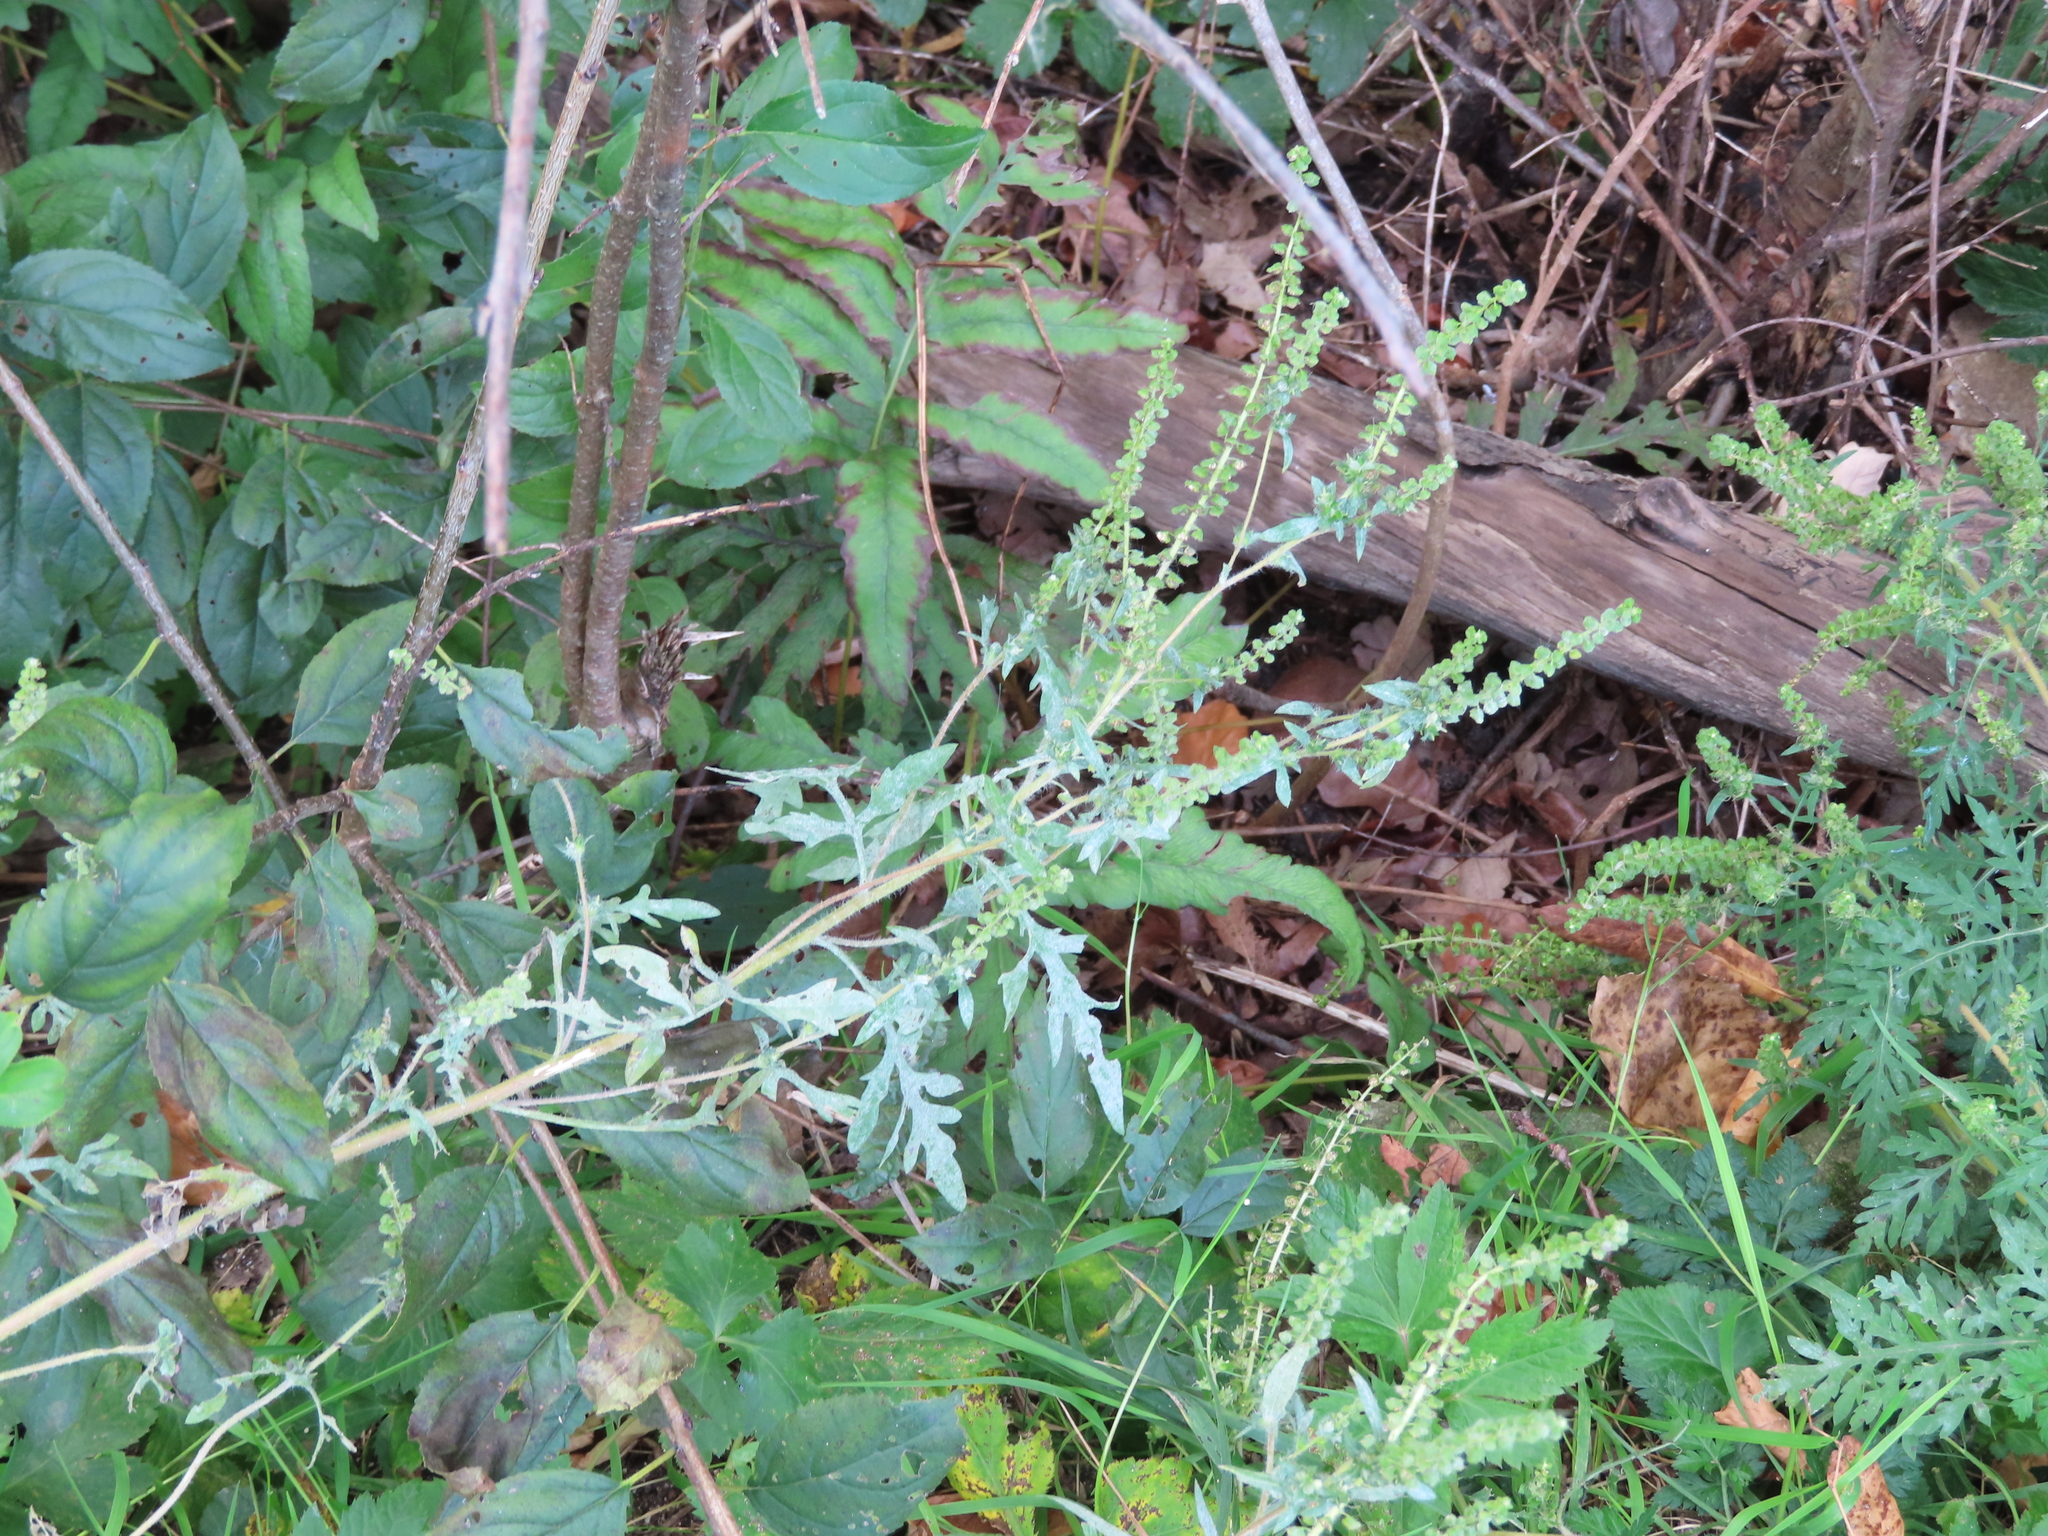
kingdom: Plantae
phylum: Tracheophyta
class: Magnoliopsida
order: Asterales
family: Asteraceae
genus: Ambrosia
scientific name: Ambrosia artemisiifolia
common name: Annual ragweed
